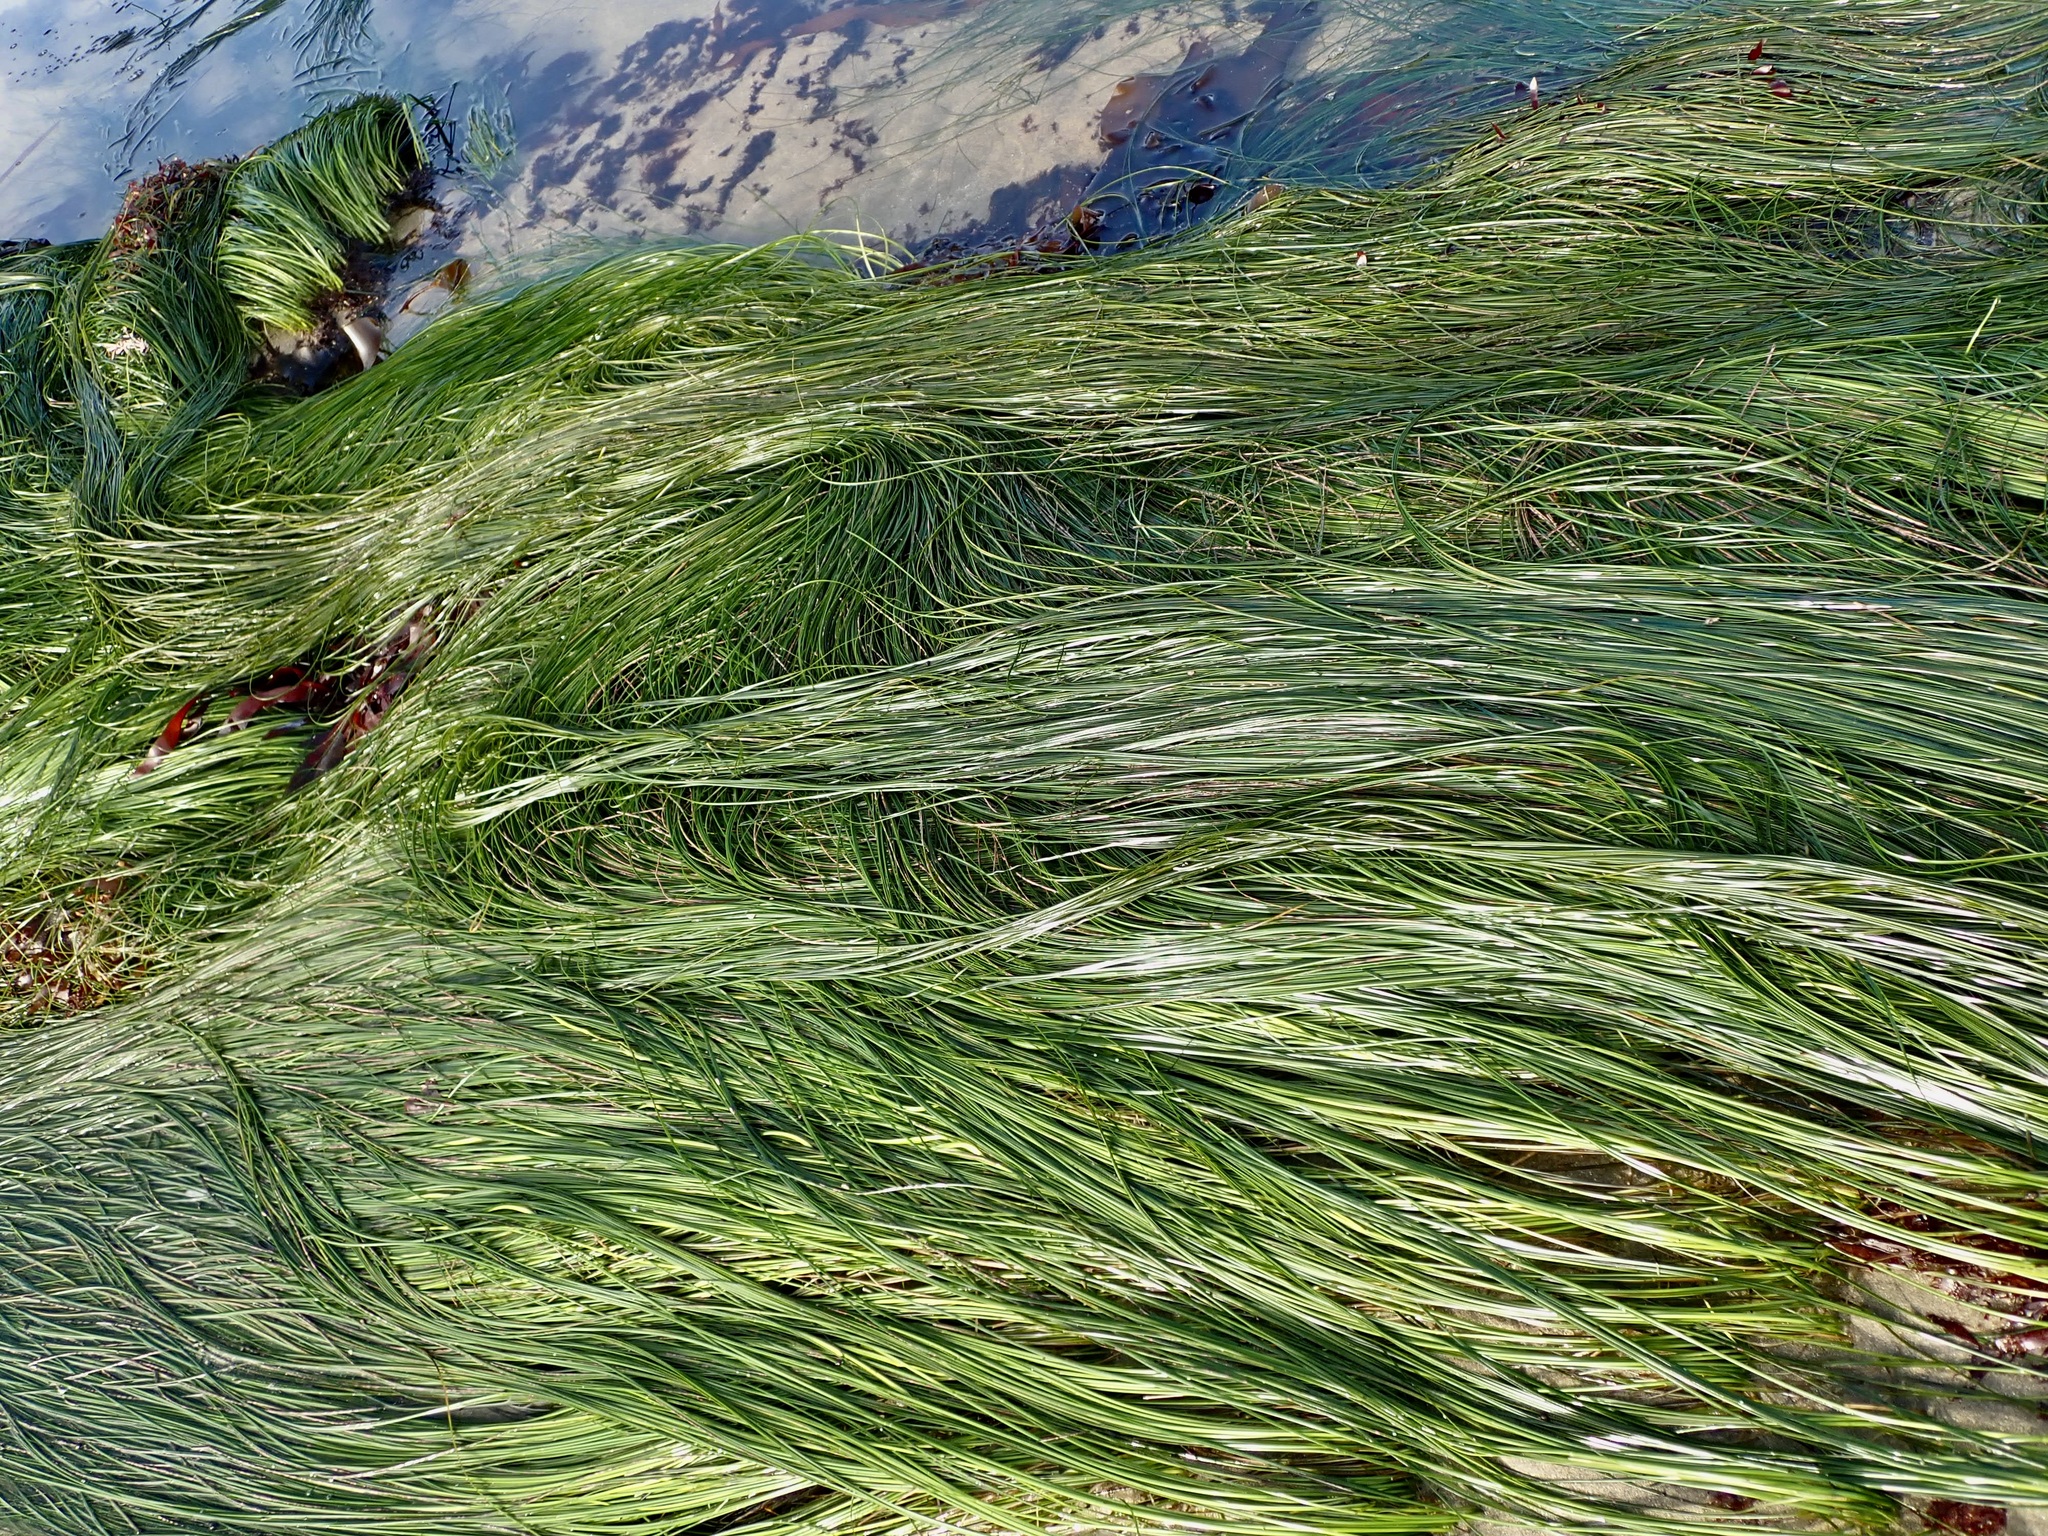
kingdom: Plantae
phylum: Tracheophyta
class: Liliopsida
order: Alismatales
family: Zosteraceae
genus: Phyllospadix
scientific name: Phyllospadix torreyi
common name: Surfgrass
